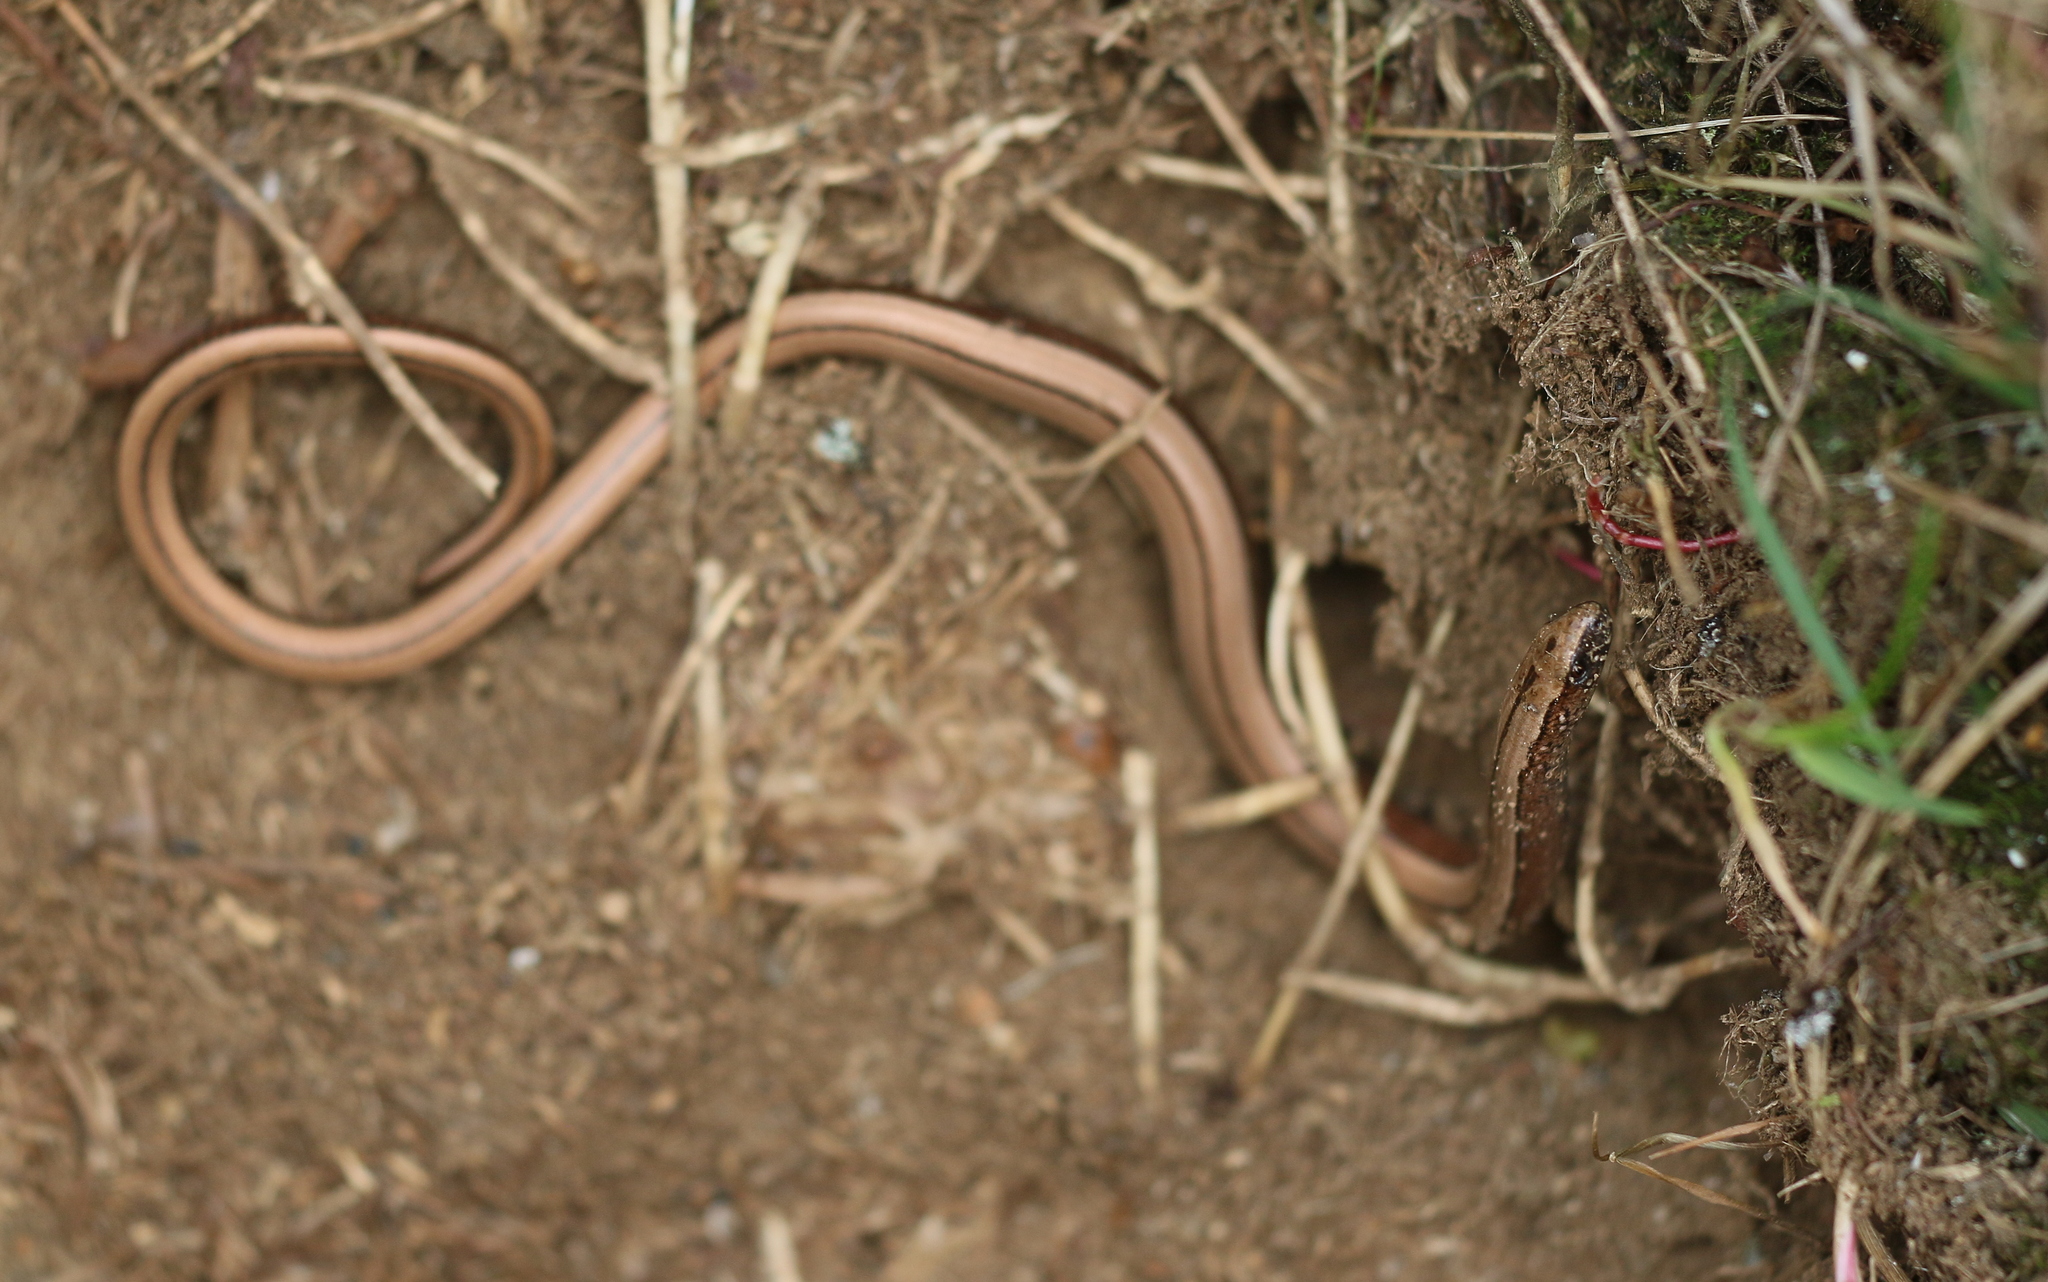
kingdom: Animalia
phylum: Chordata
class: Squamata
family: Anguidae
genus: Anguis
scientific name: Anguis fragilis
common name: Slow worm
